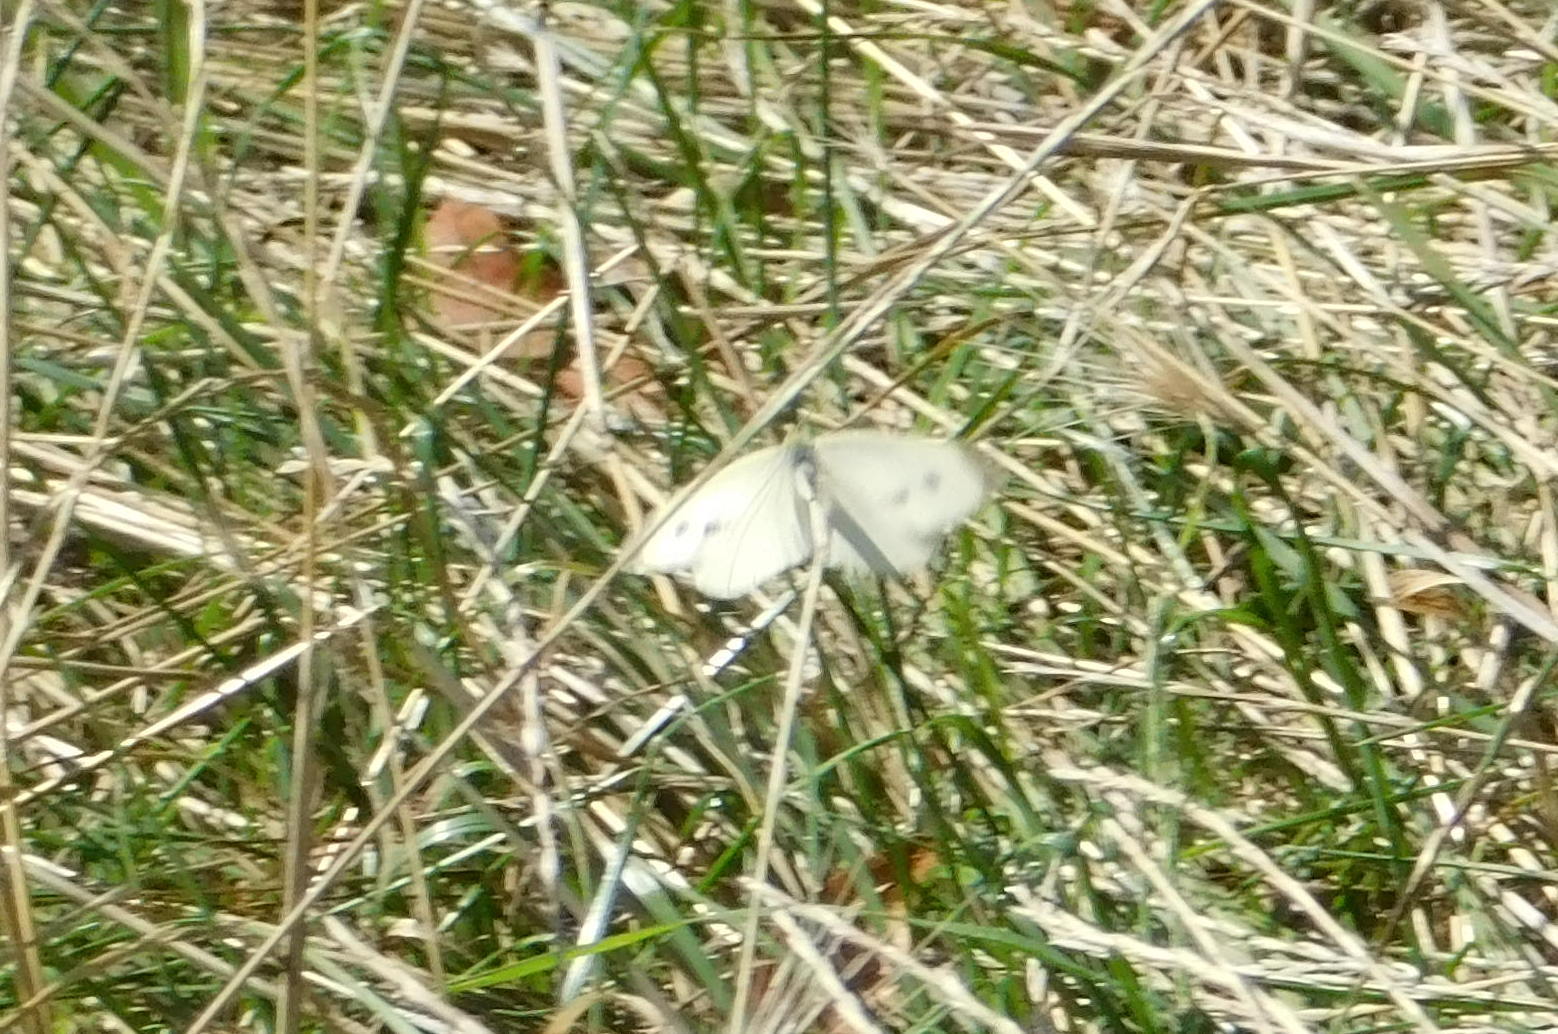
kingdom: Animalia
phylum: Arthropoda
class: Insecta
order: Lepidoptera
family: Pieridae
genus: Pieris
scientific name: Pieris rapae
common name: Small white
